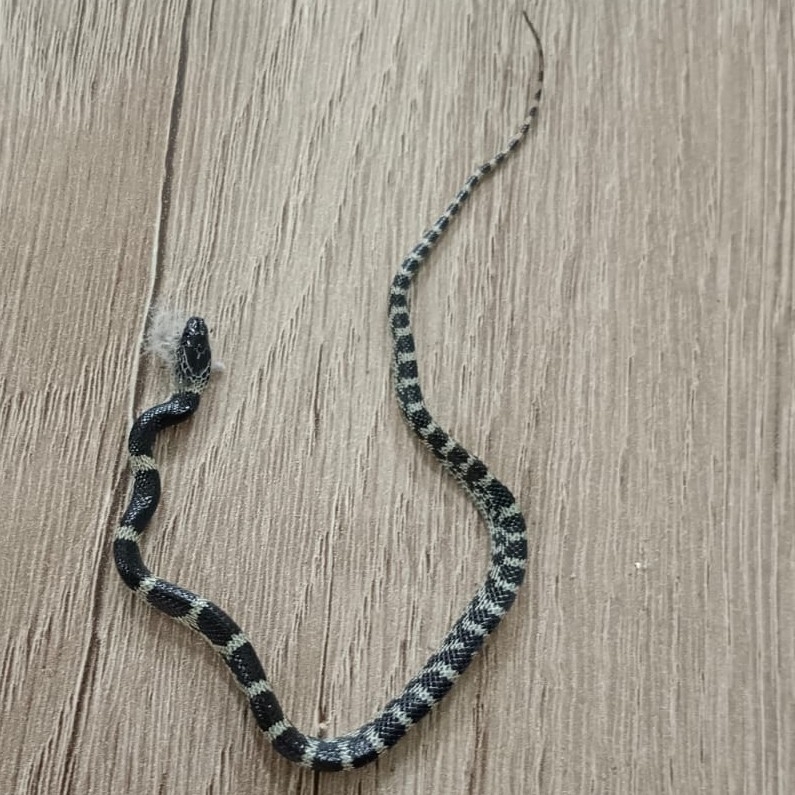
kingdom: Animalia
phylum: Chordata
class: Squamata
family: Colubridae
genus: Lycodon
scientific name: Lycodon travancoricus
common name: Travancore wolf snake
